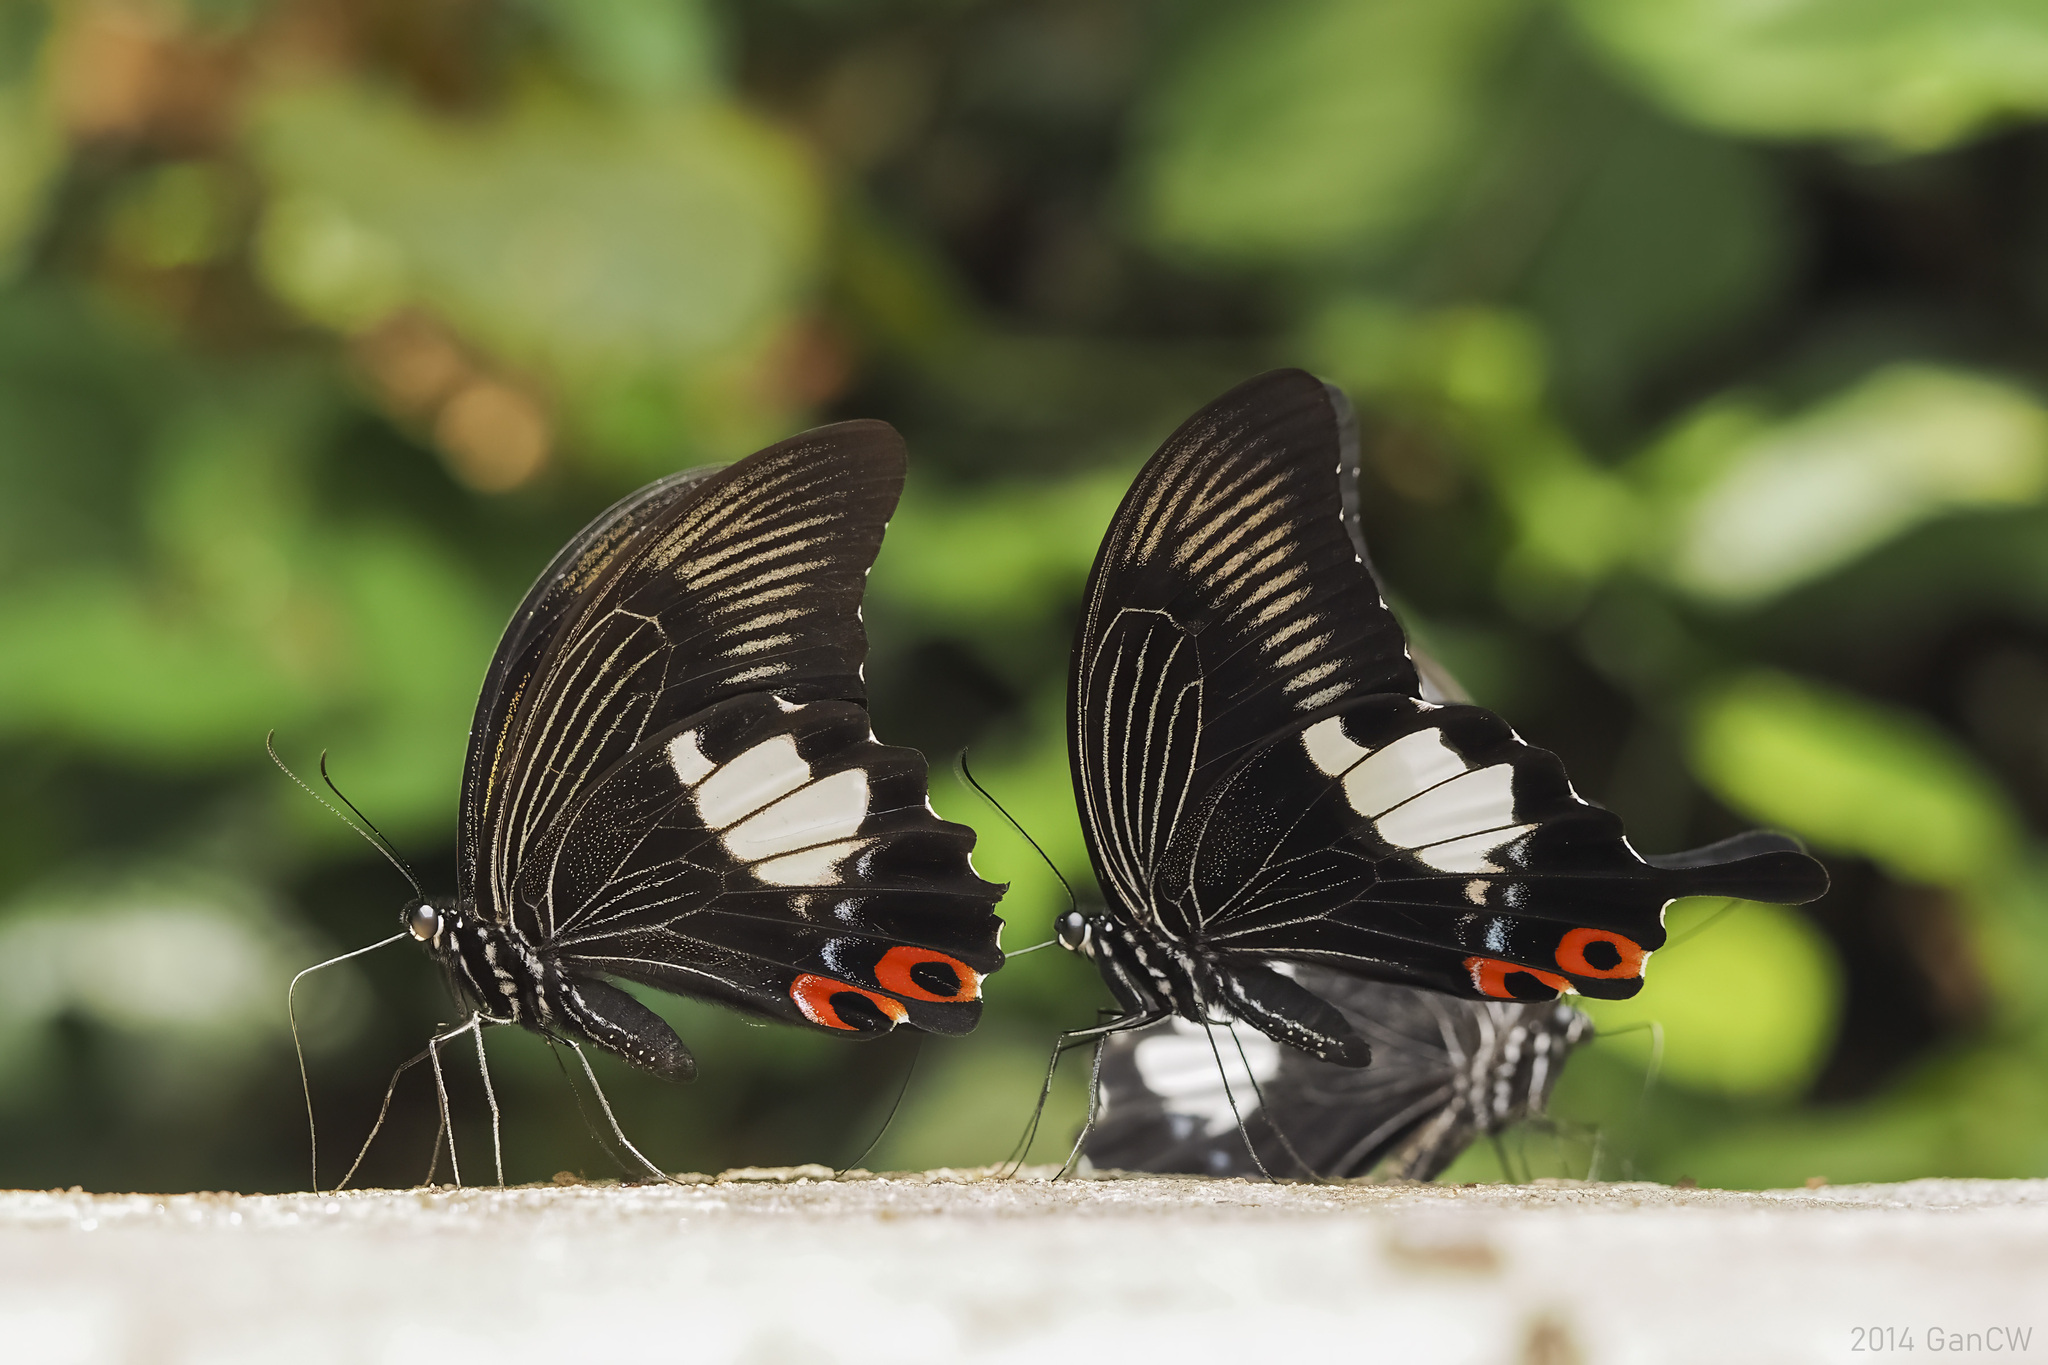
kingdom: Animalia
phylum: Arthropoda
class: Insecta
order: Lepidoptera
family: Papilionidae
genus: Papilio
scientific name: Papilio iswara
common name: Great helen swallowtail
